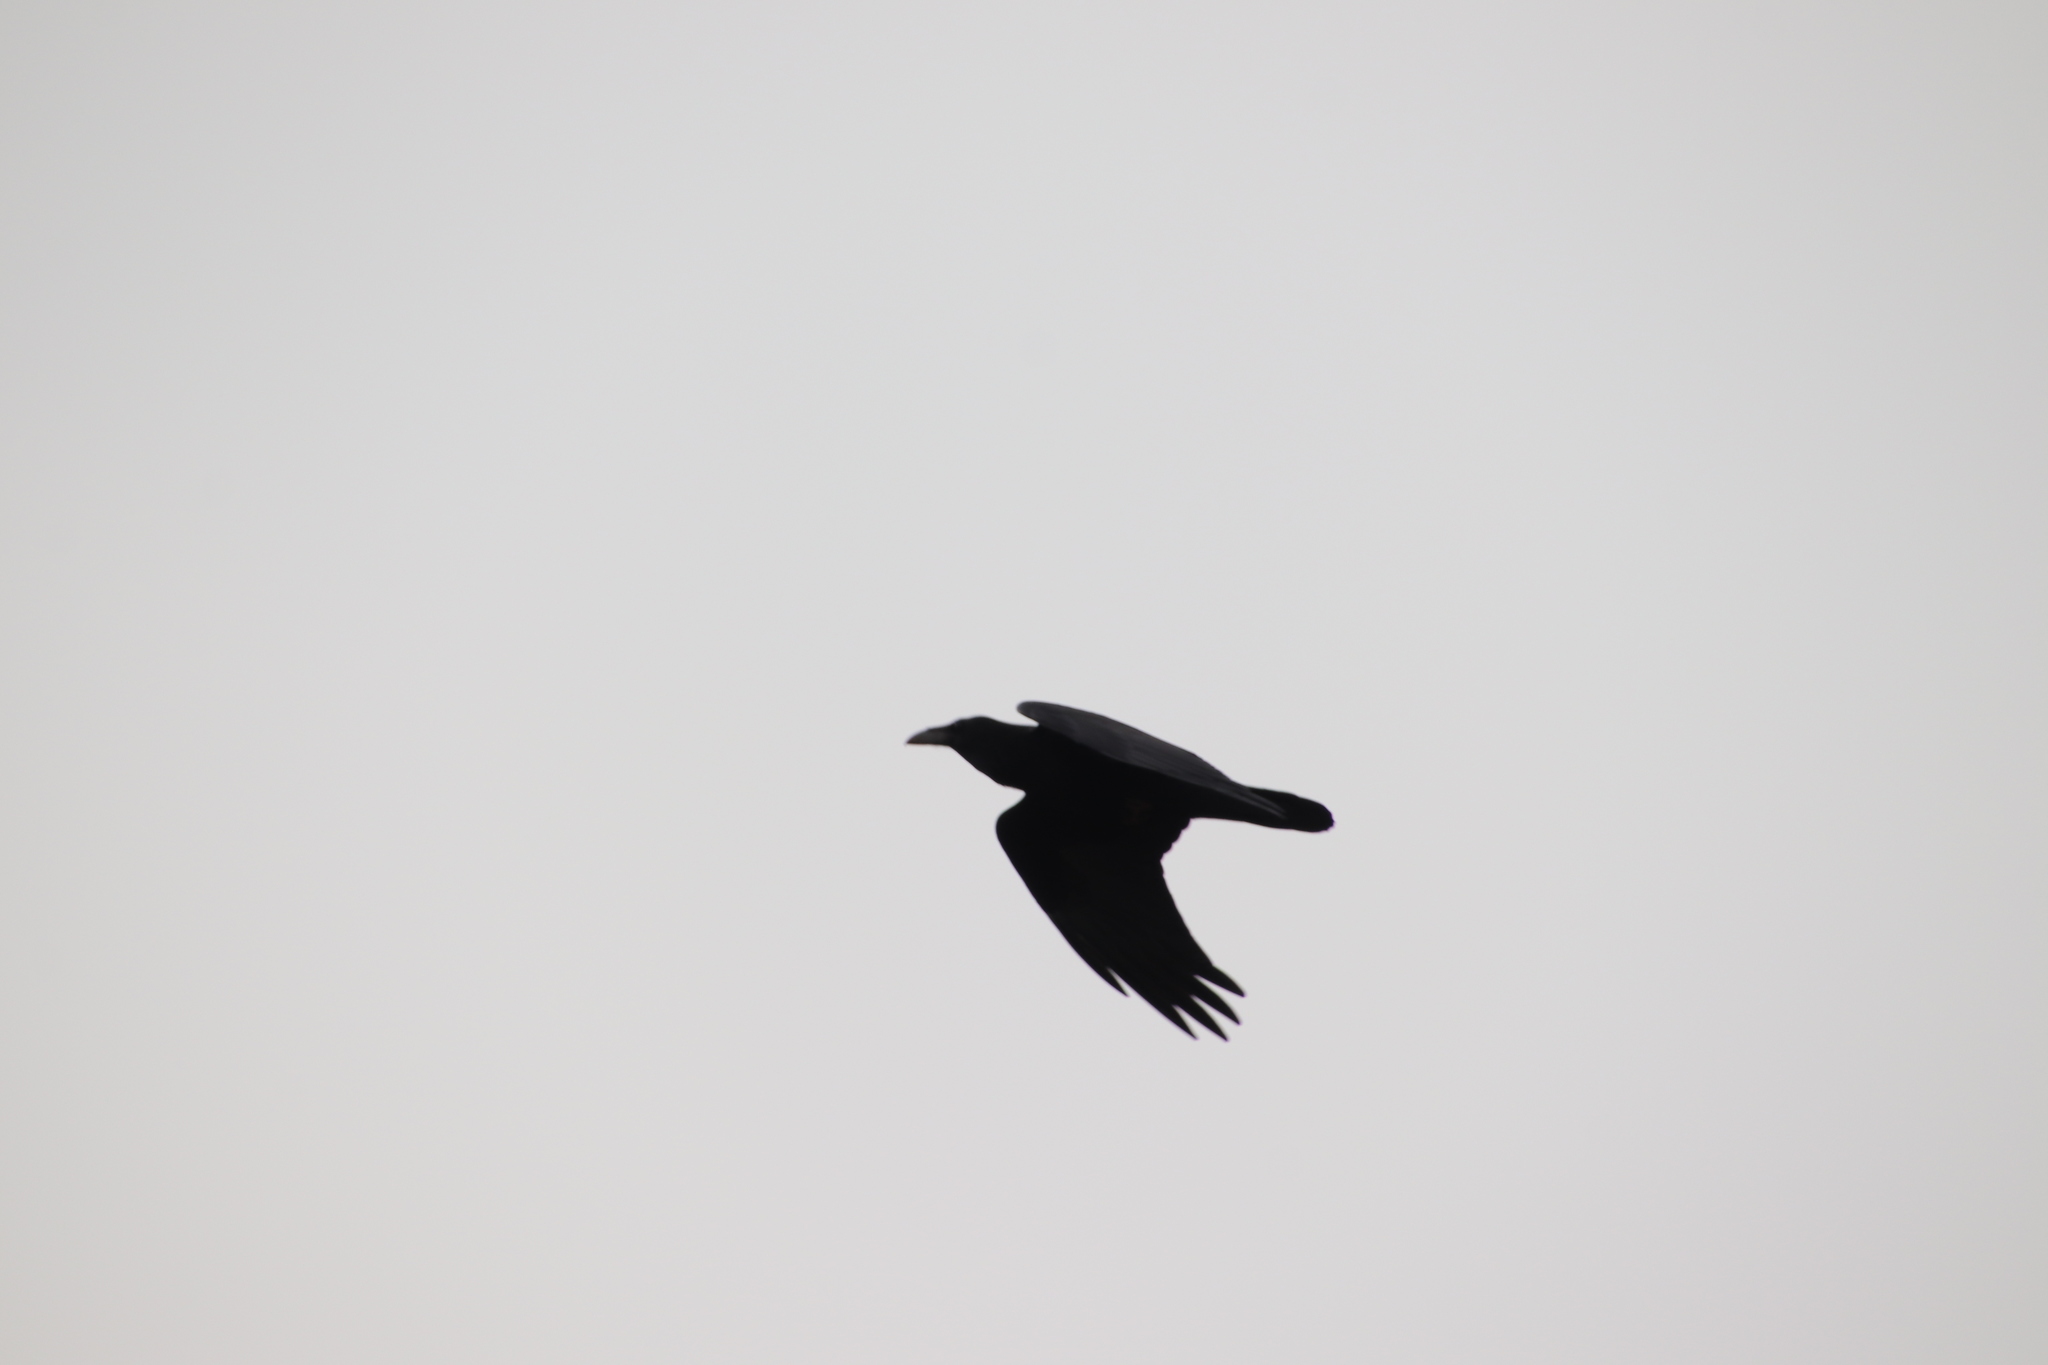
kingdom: Animalia
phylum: Chordata
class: Aves
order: Passeriformes
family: Corvidae
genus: Corvus
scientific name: Corvus corax
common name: Common raven
